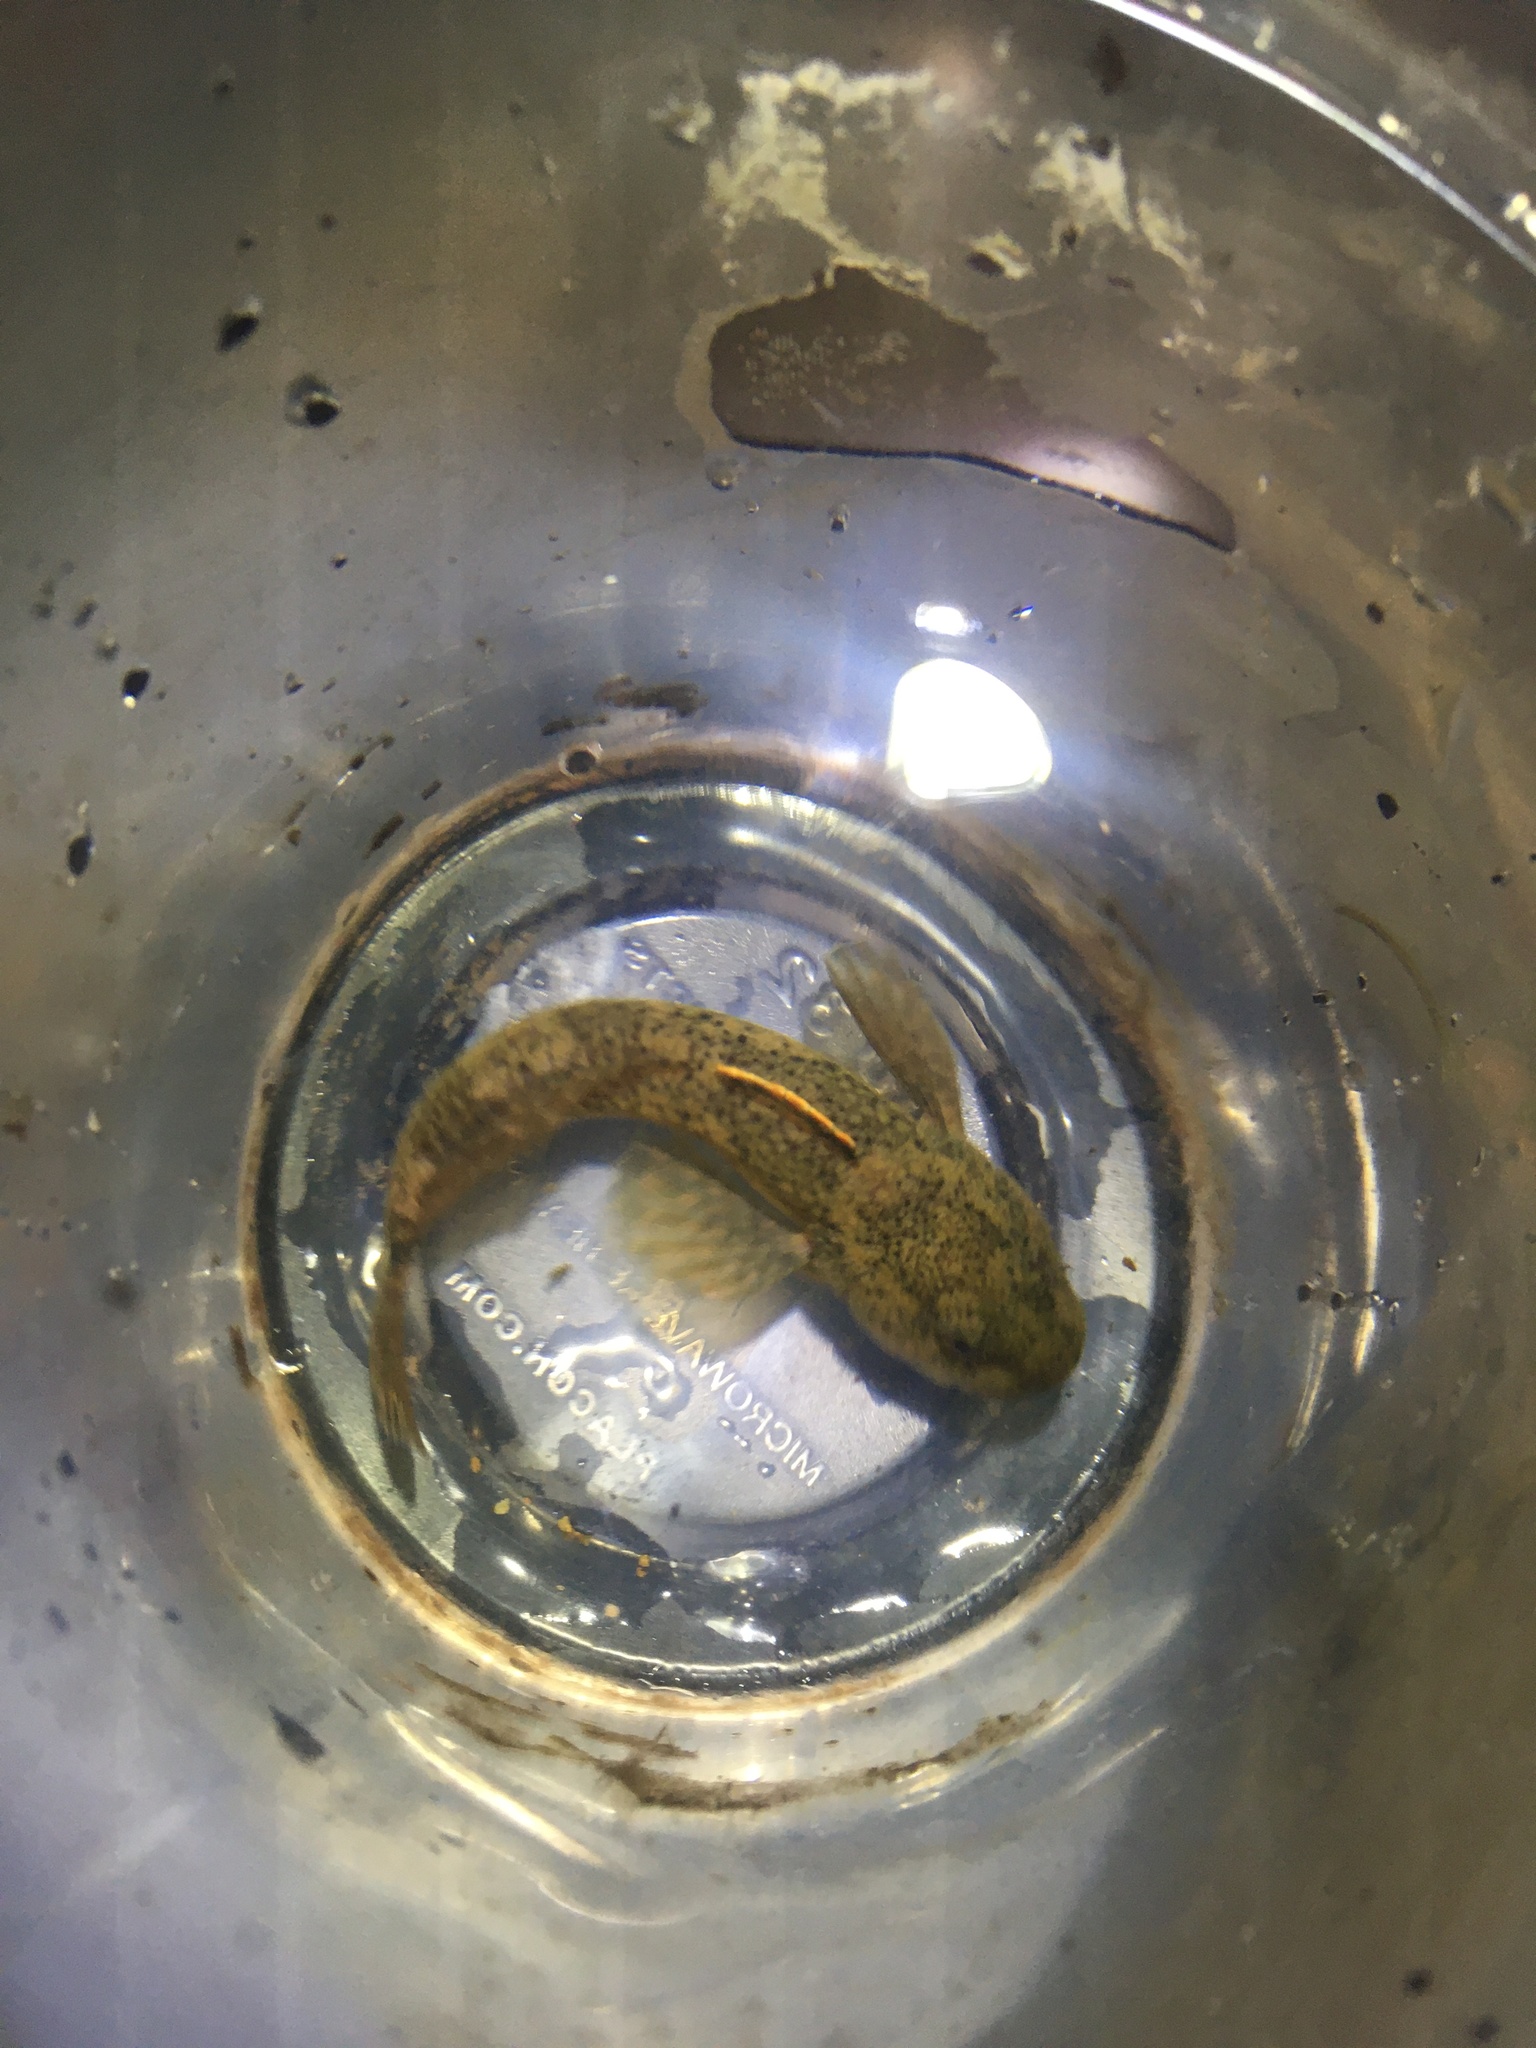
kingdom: Animalia
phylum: Chordata
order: Scorpaeniformes
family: Cottidae
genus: Cottus
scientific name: Cottus bairdii
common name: Mottled sculpin
